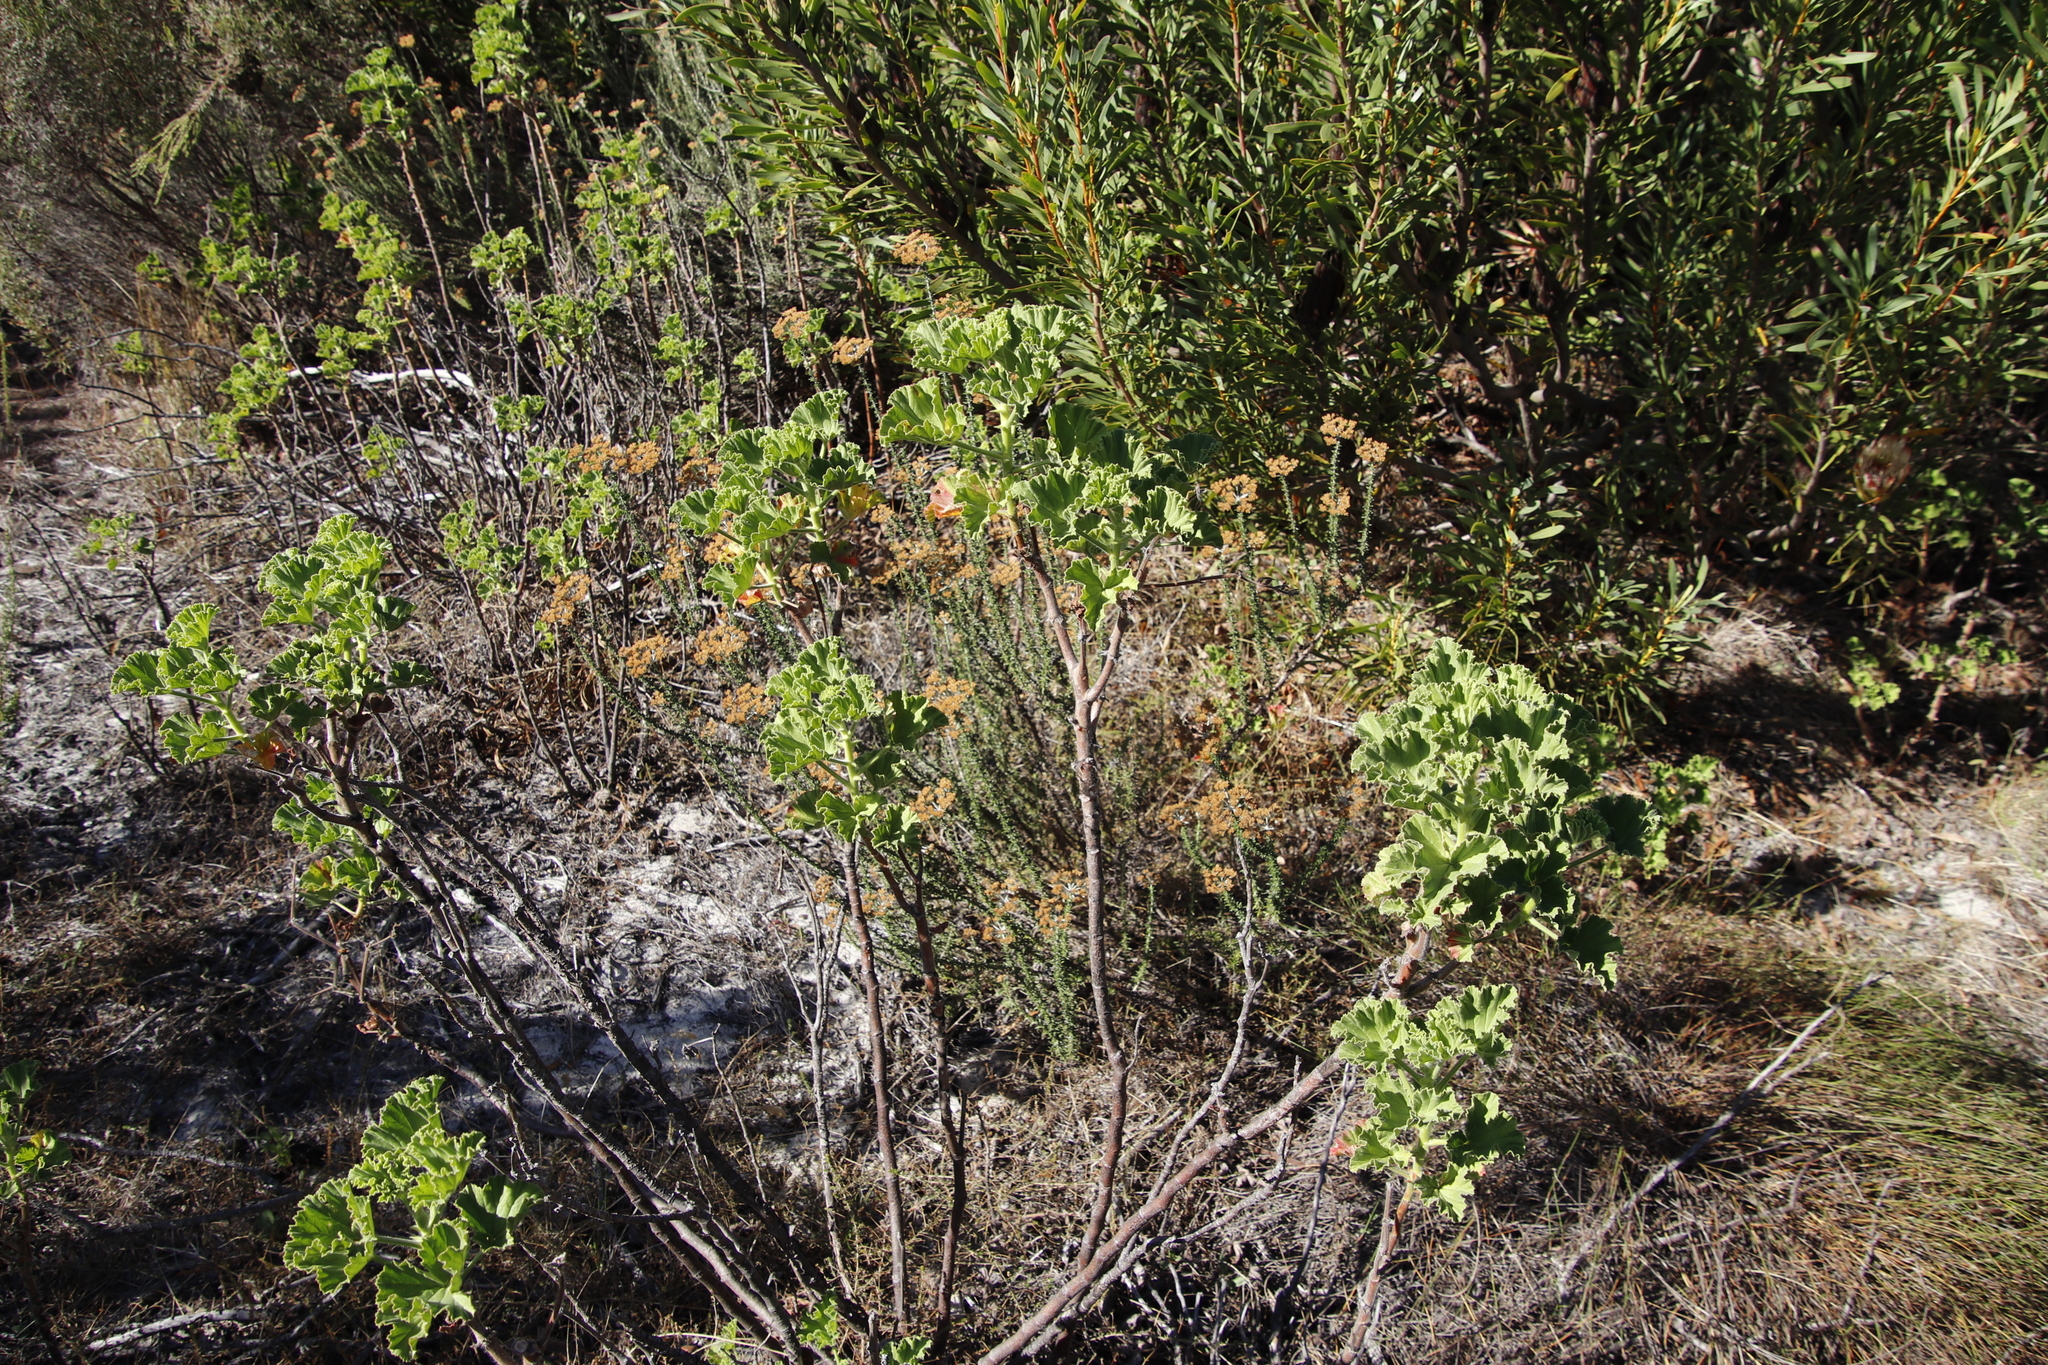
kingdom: Plantae
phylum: Tracheophyta
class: Magnoliopsida
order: Geraniales
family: Geraniaceae
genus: Pelargonium
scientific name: Pelargonium cucullatum
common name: Tree pelargonium
